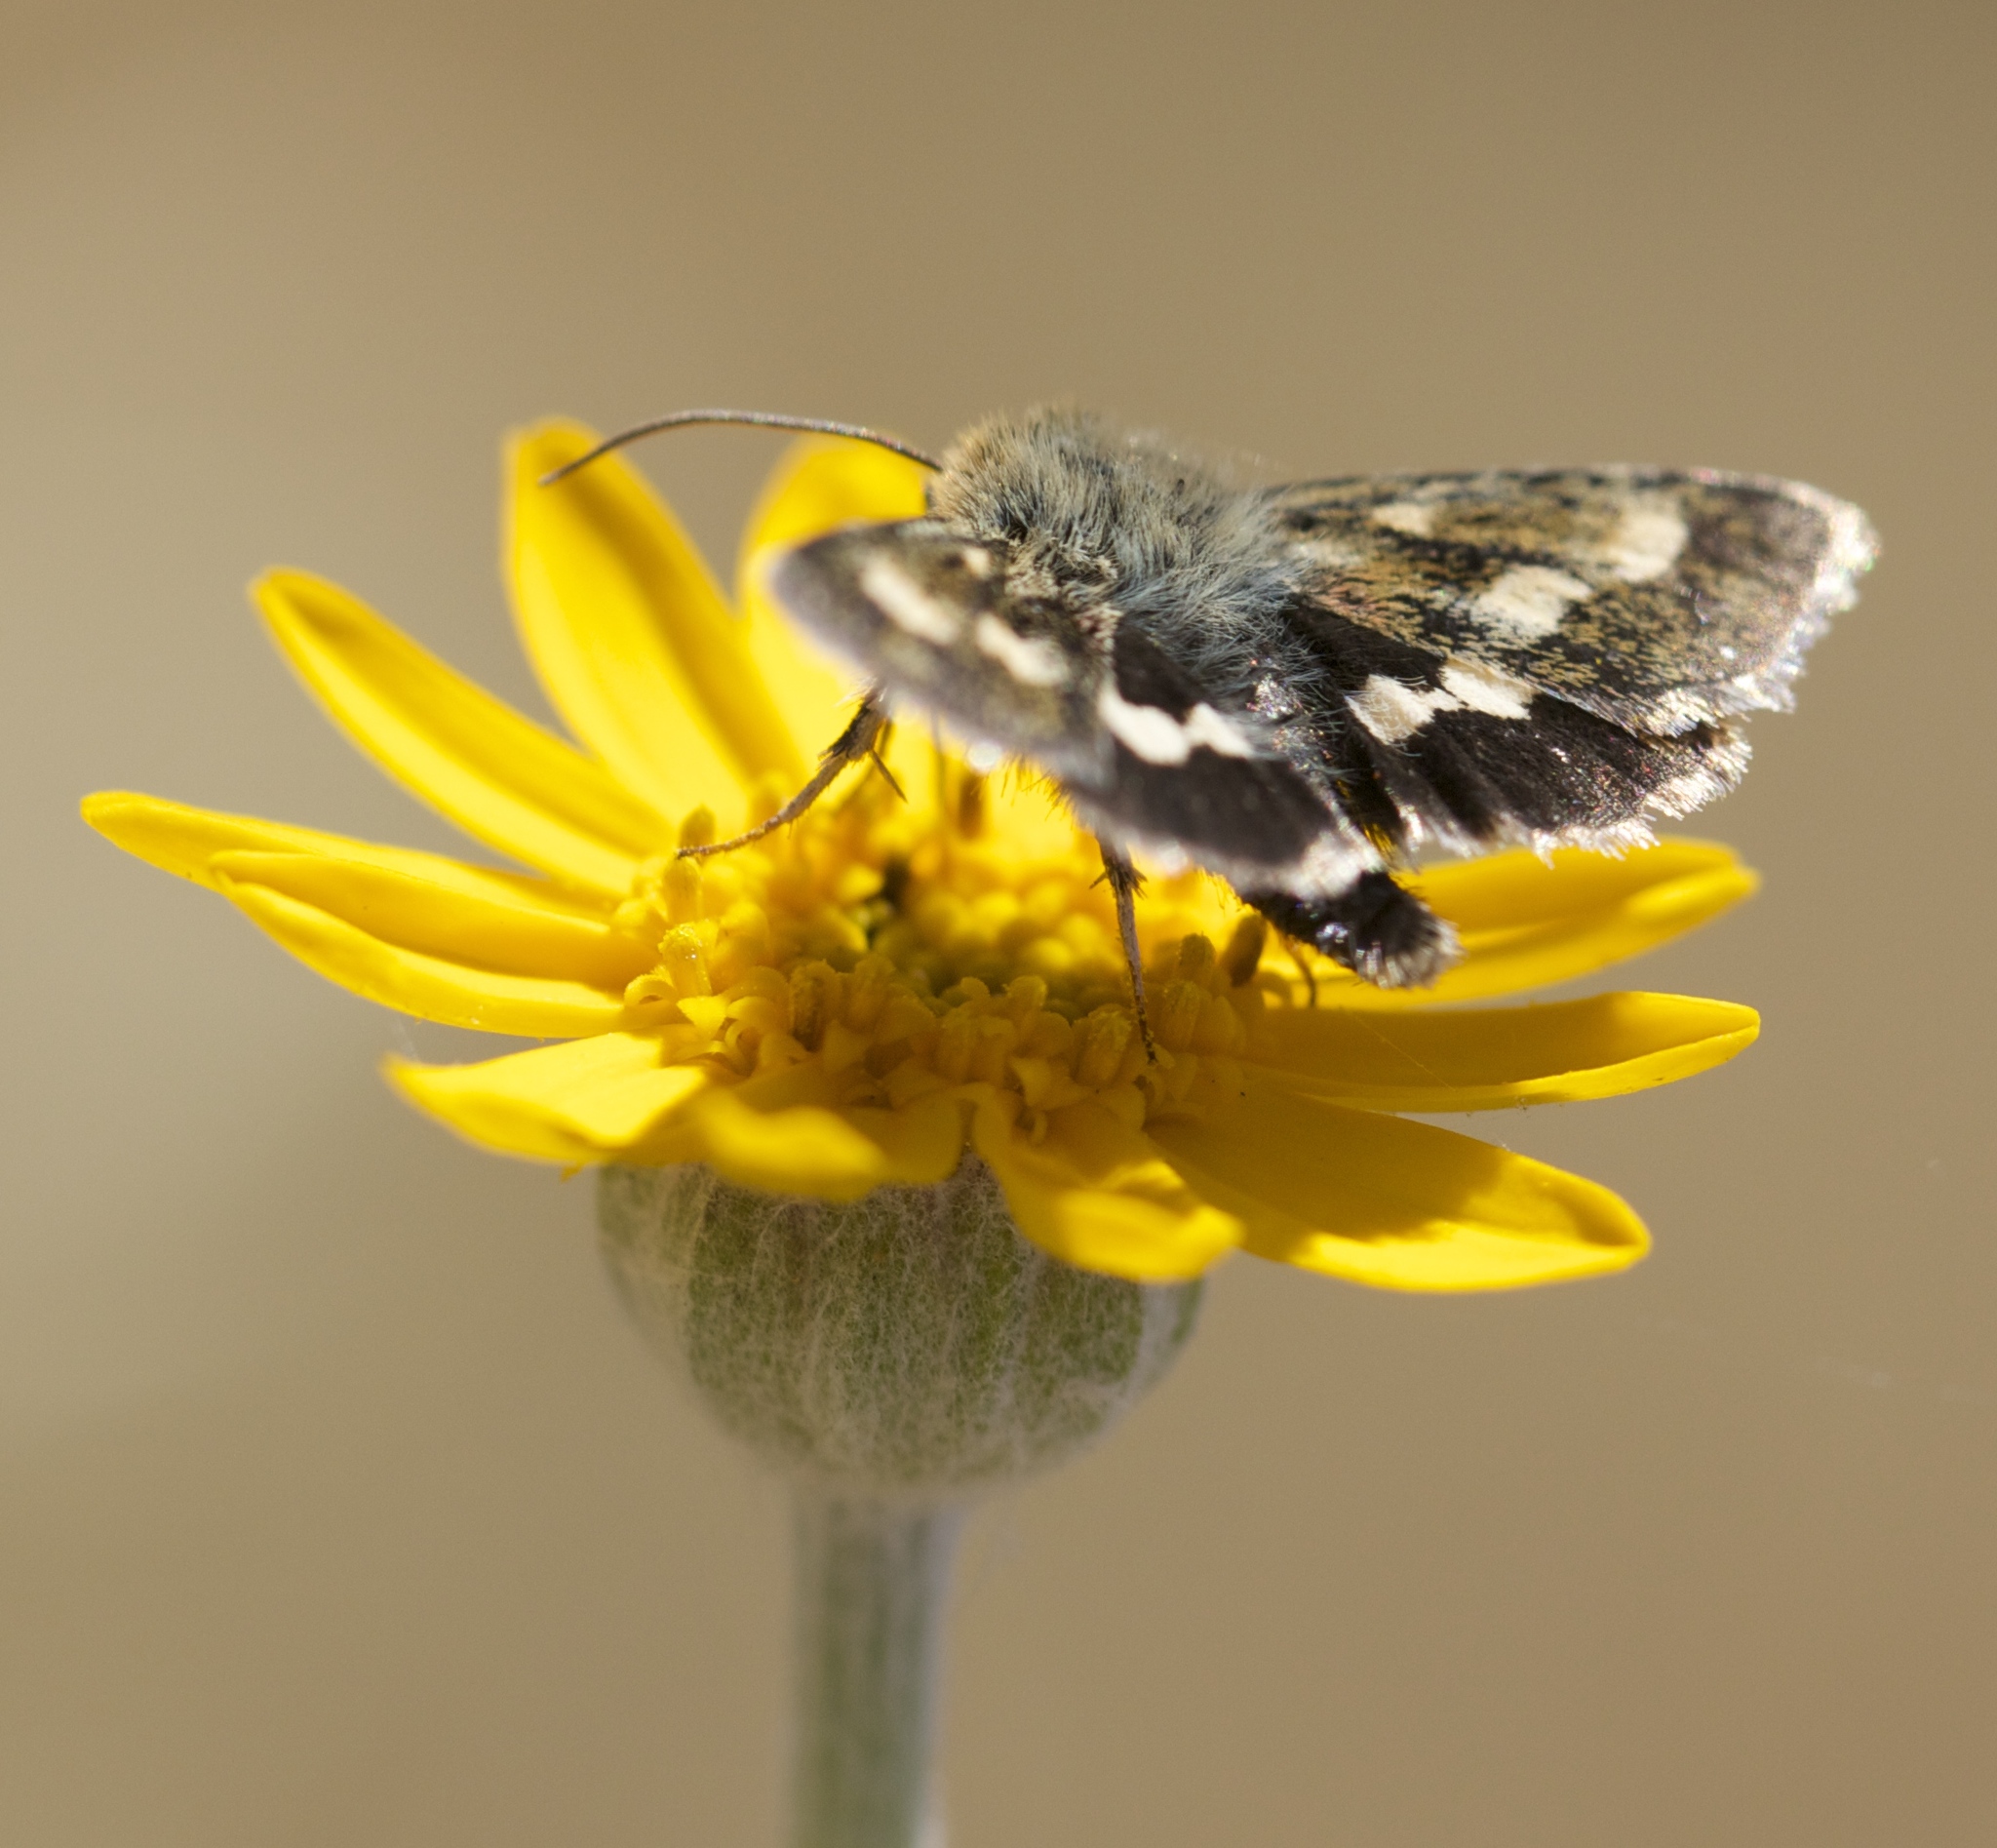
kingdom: Animalia
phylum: Arthropoda
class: Insecta
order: Lepidoptera
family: Noctuidae
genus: Heliothodes
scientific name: Heliothodes diminutiva
